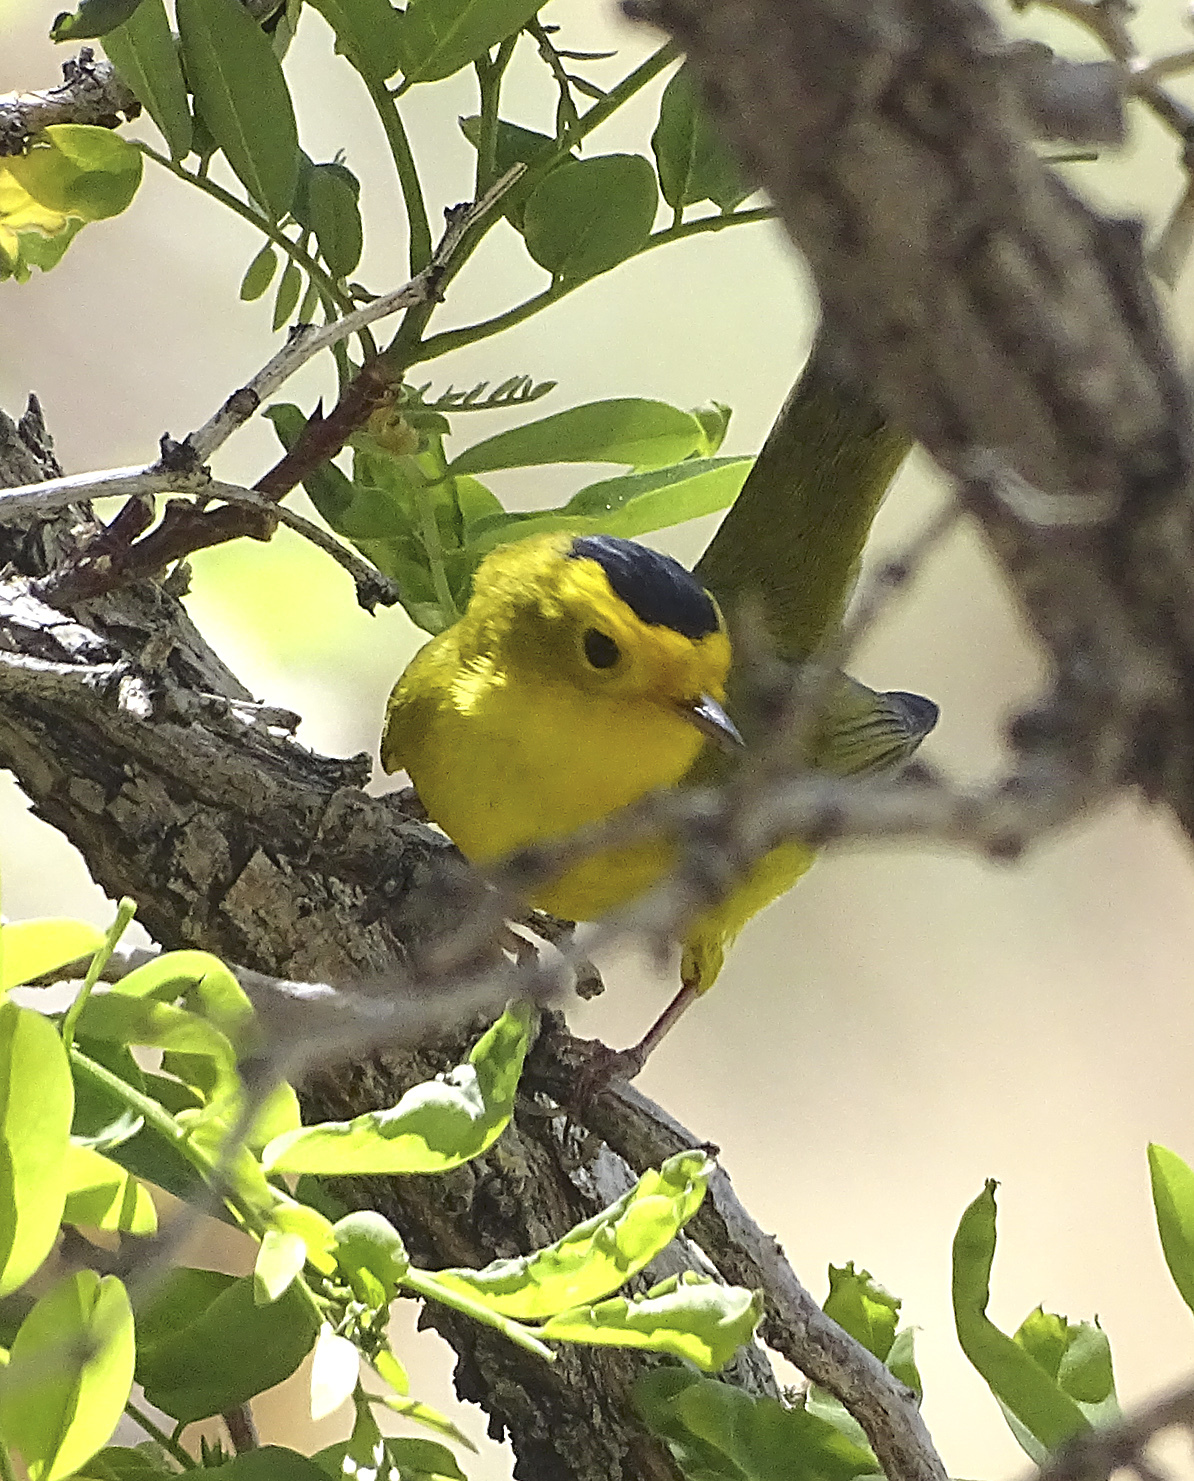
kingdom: Animalia
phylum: Chordata
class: Aves
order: Passeriformes
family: Parulidae
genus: Cardellina
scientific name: Cardellina pusilla
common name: Wilson's warbler
